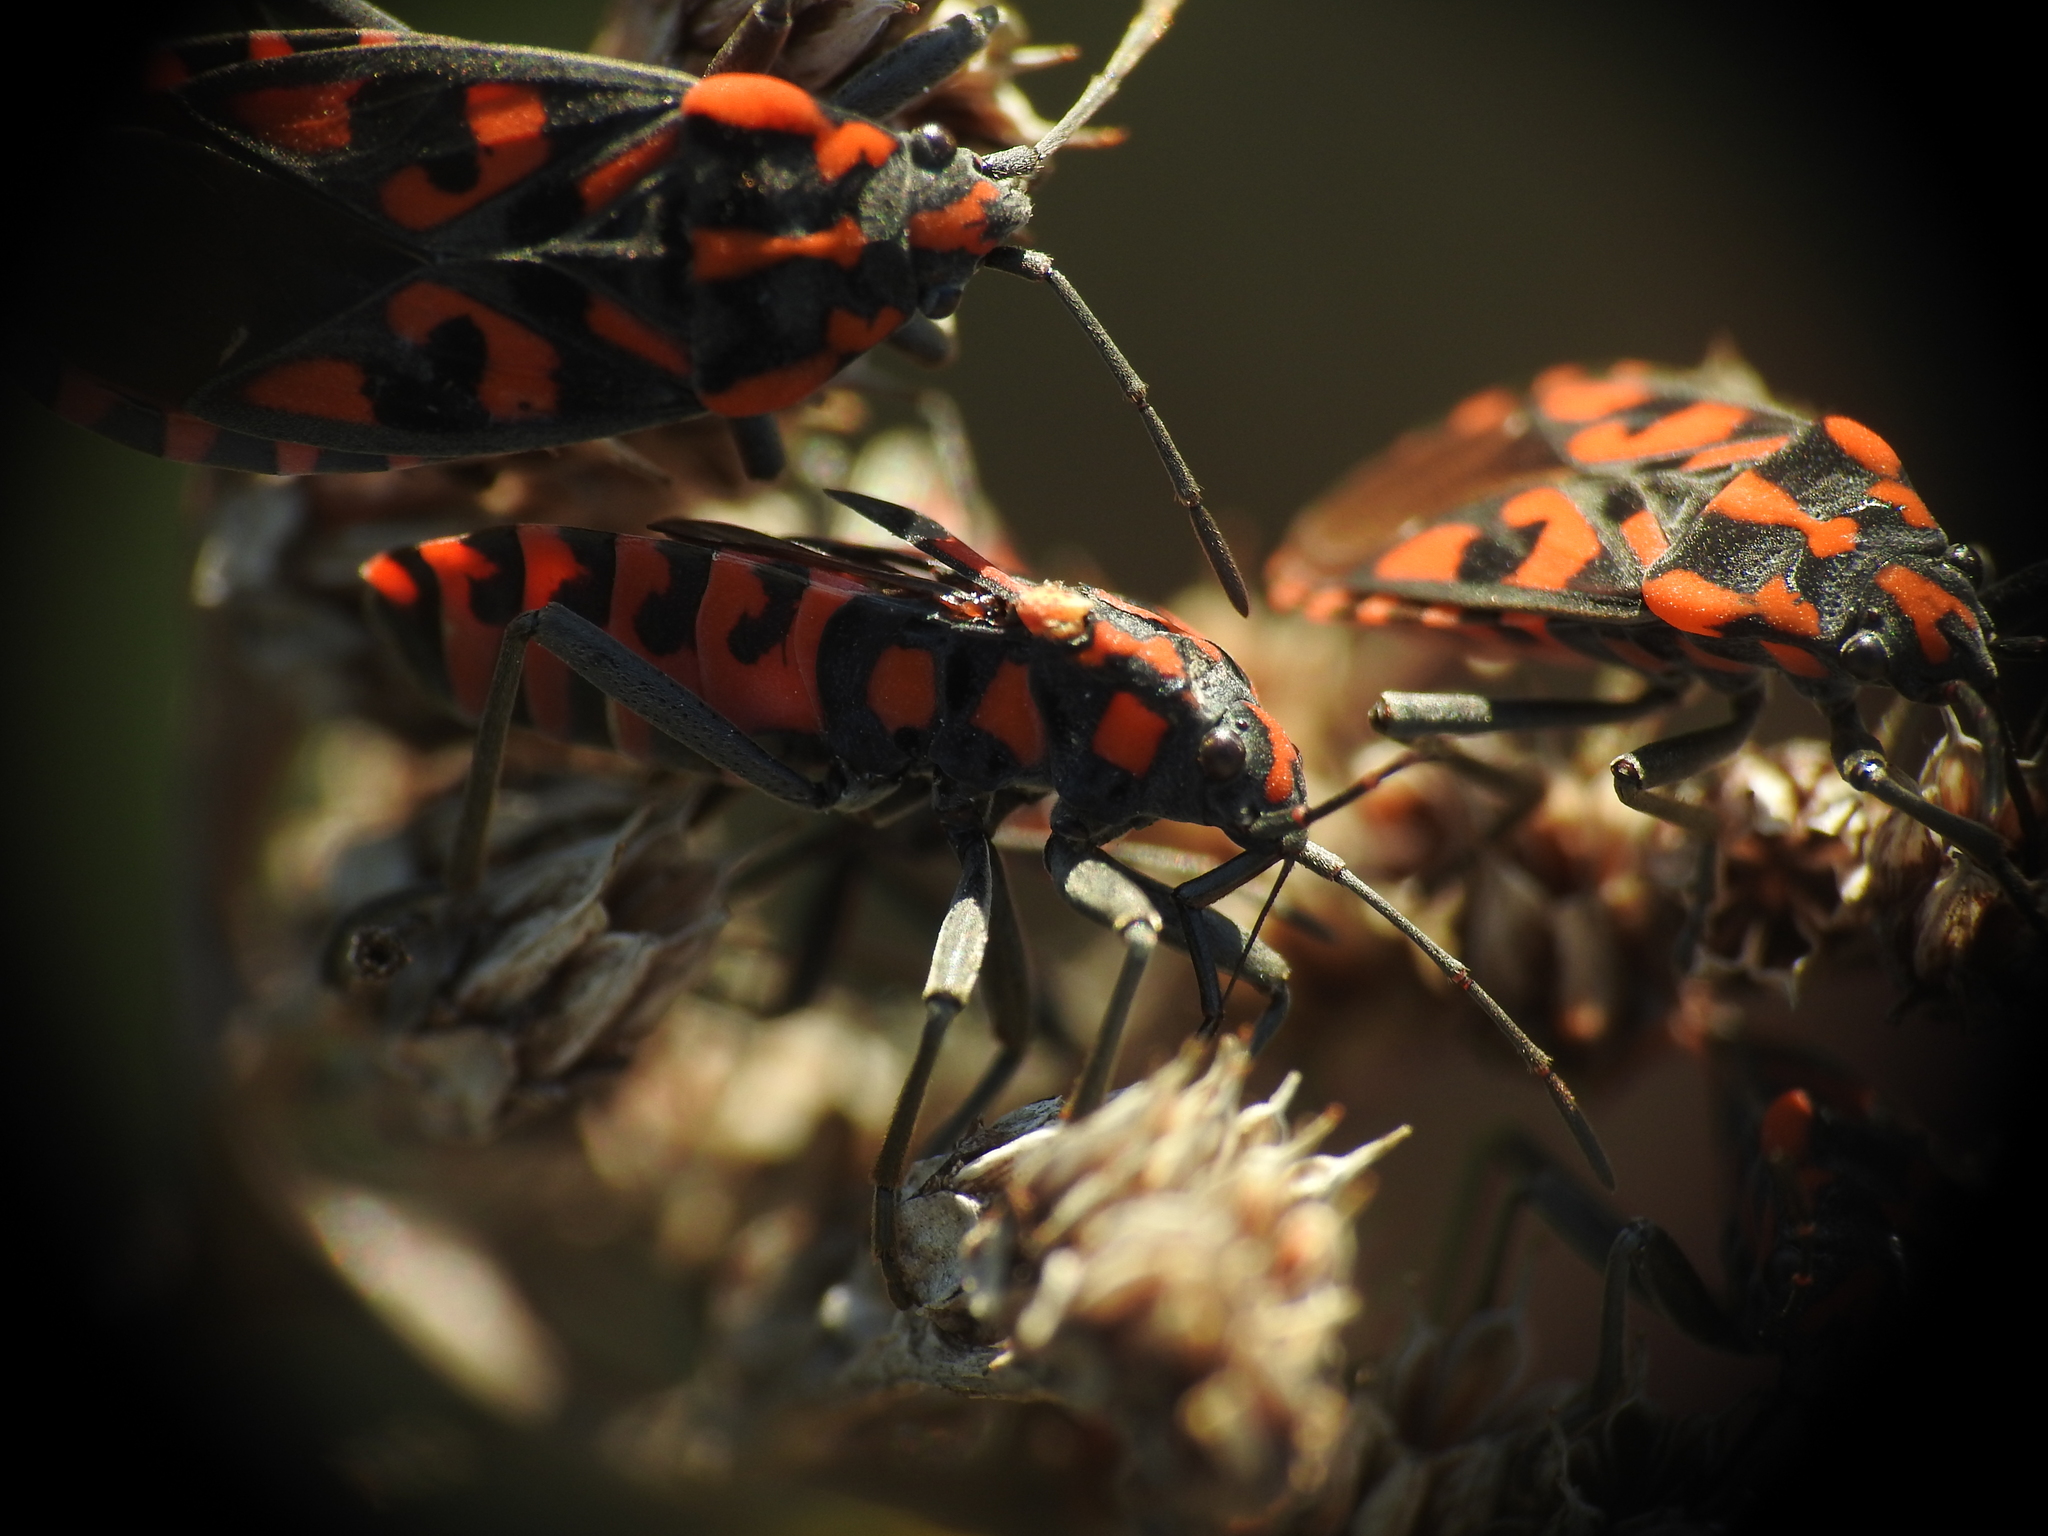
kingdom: Animalia
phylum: Arthropoda
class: Insecta
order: Hemiptera
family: Lygaeidae
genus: Spilostethus
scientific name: Spilostethus saxatilis
